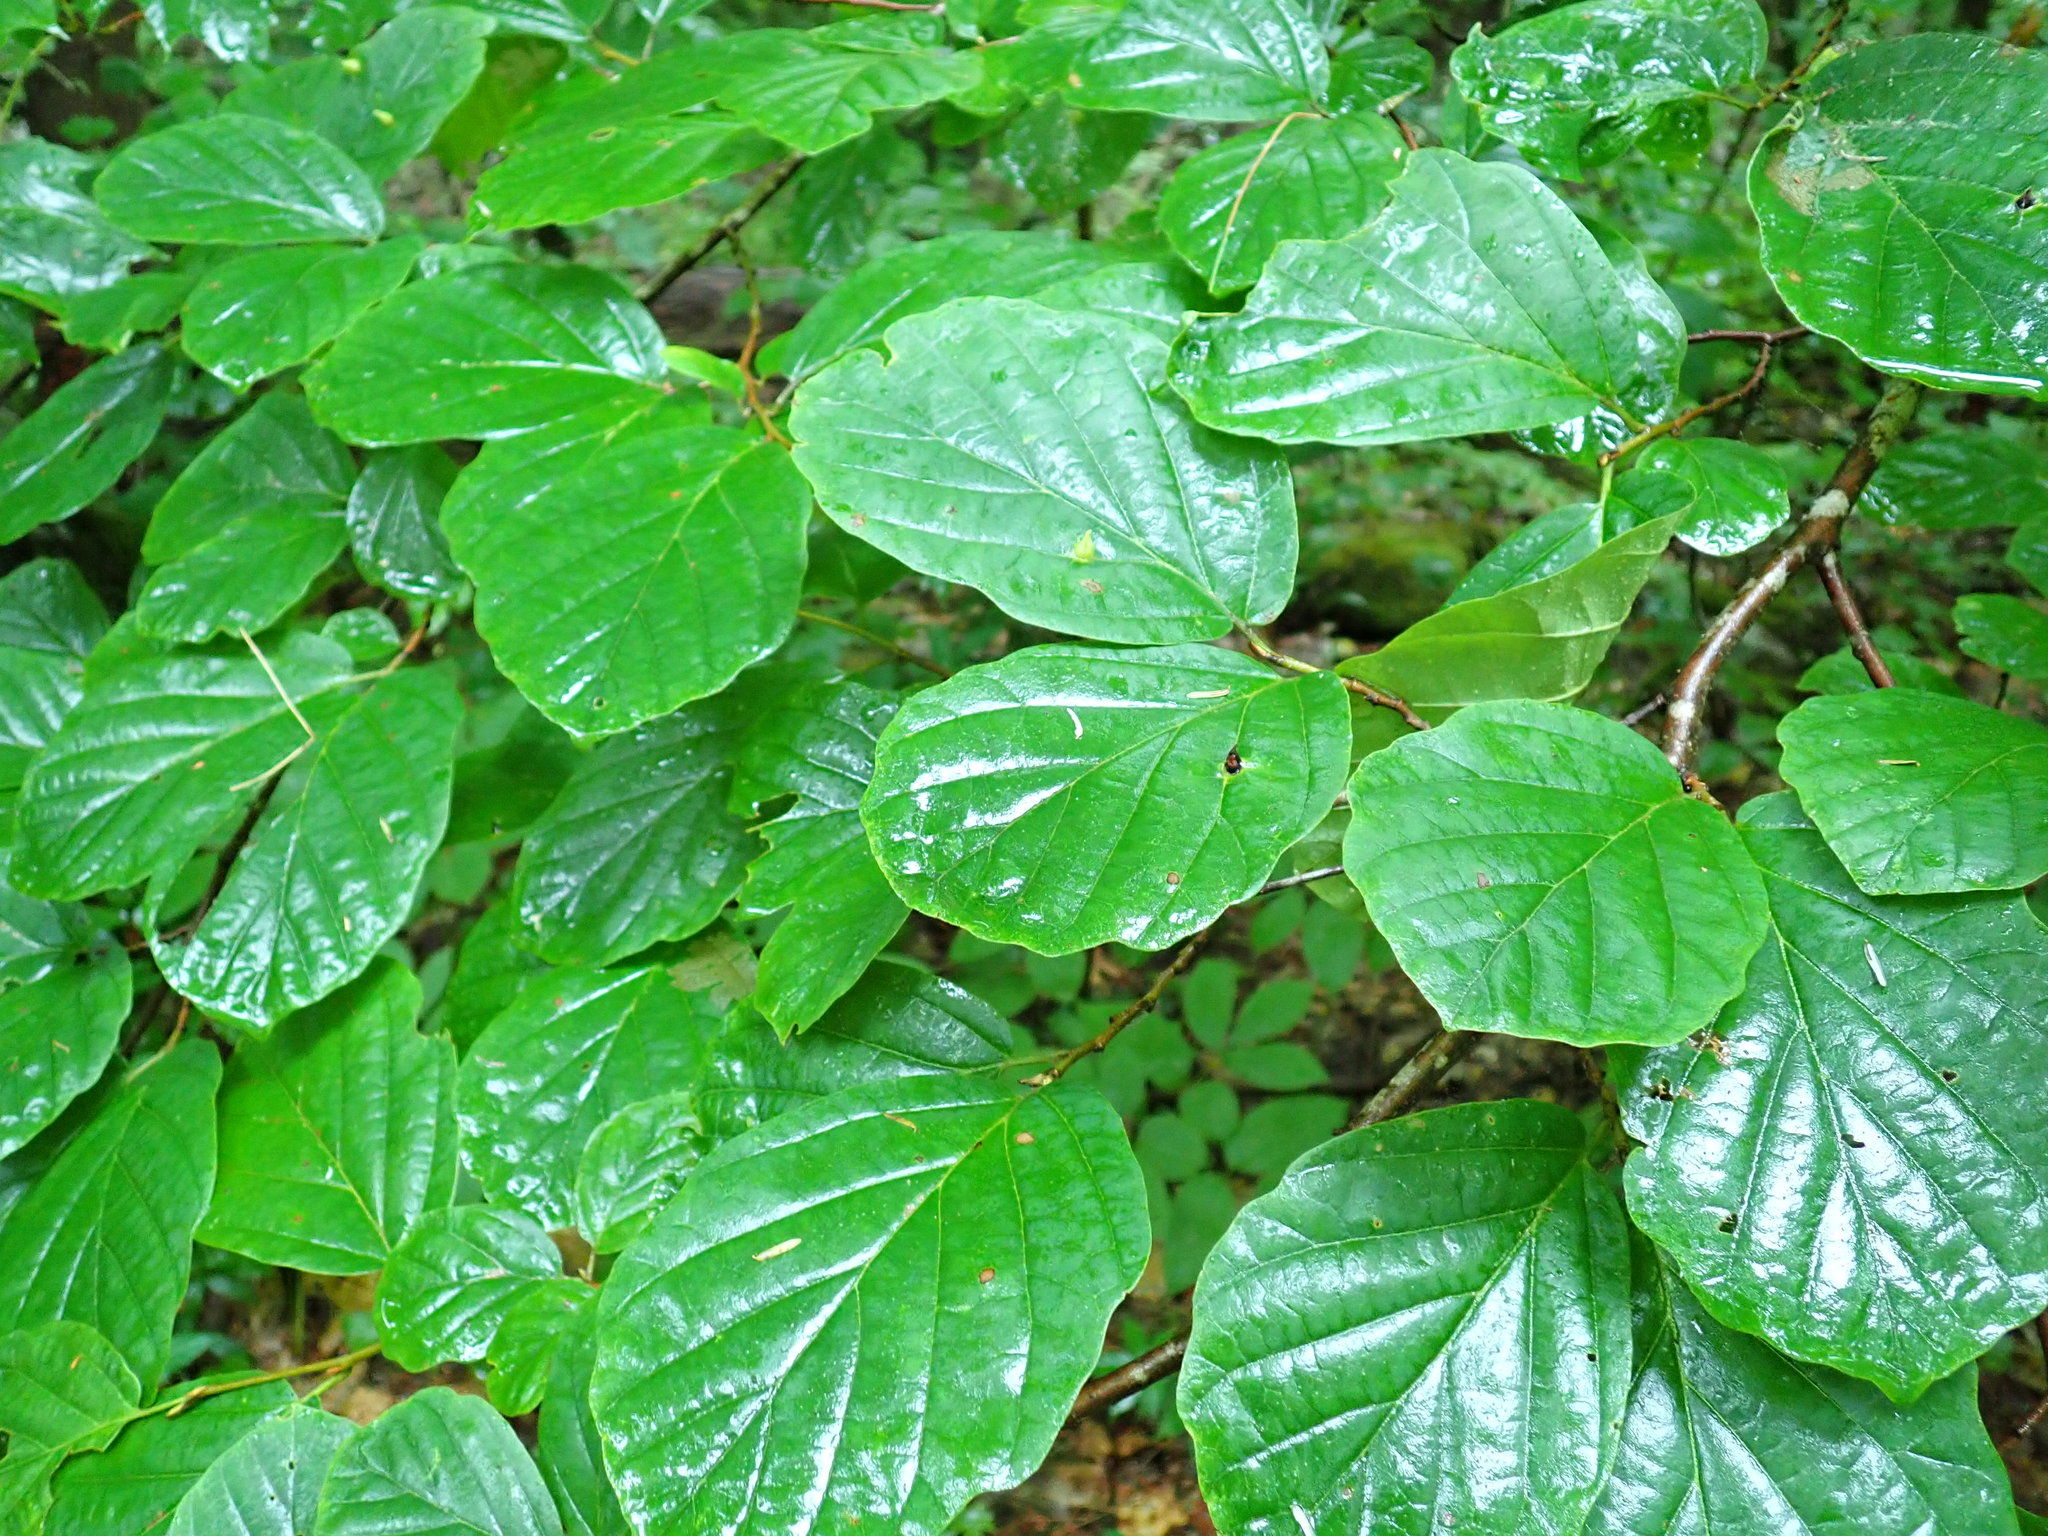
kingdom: Animalia
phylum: Arthropoda
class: Insecta
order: Hemiptera
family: Aphididae
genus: Hormaphis
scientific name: Hormaphis hamamelidis
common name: Witch-hazel cone gall aphid
